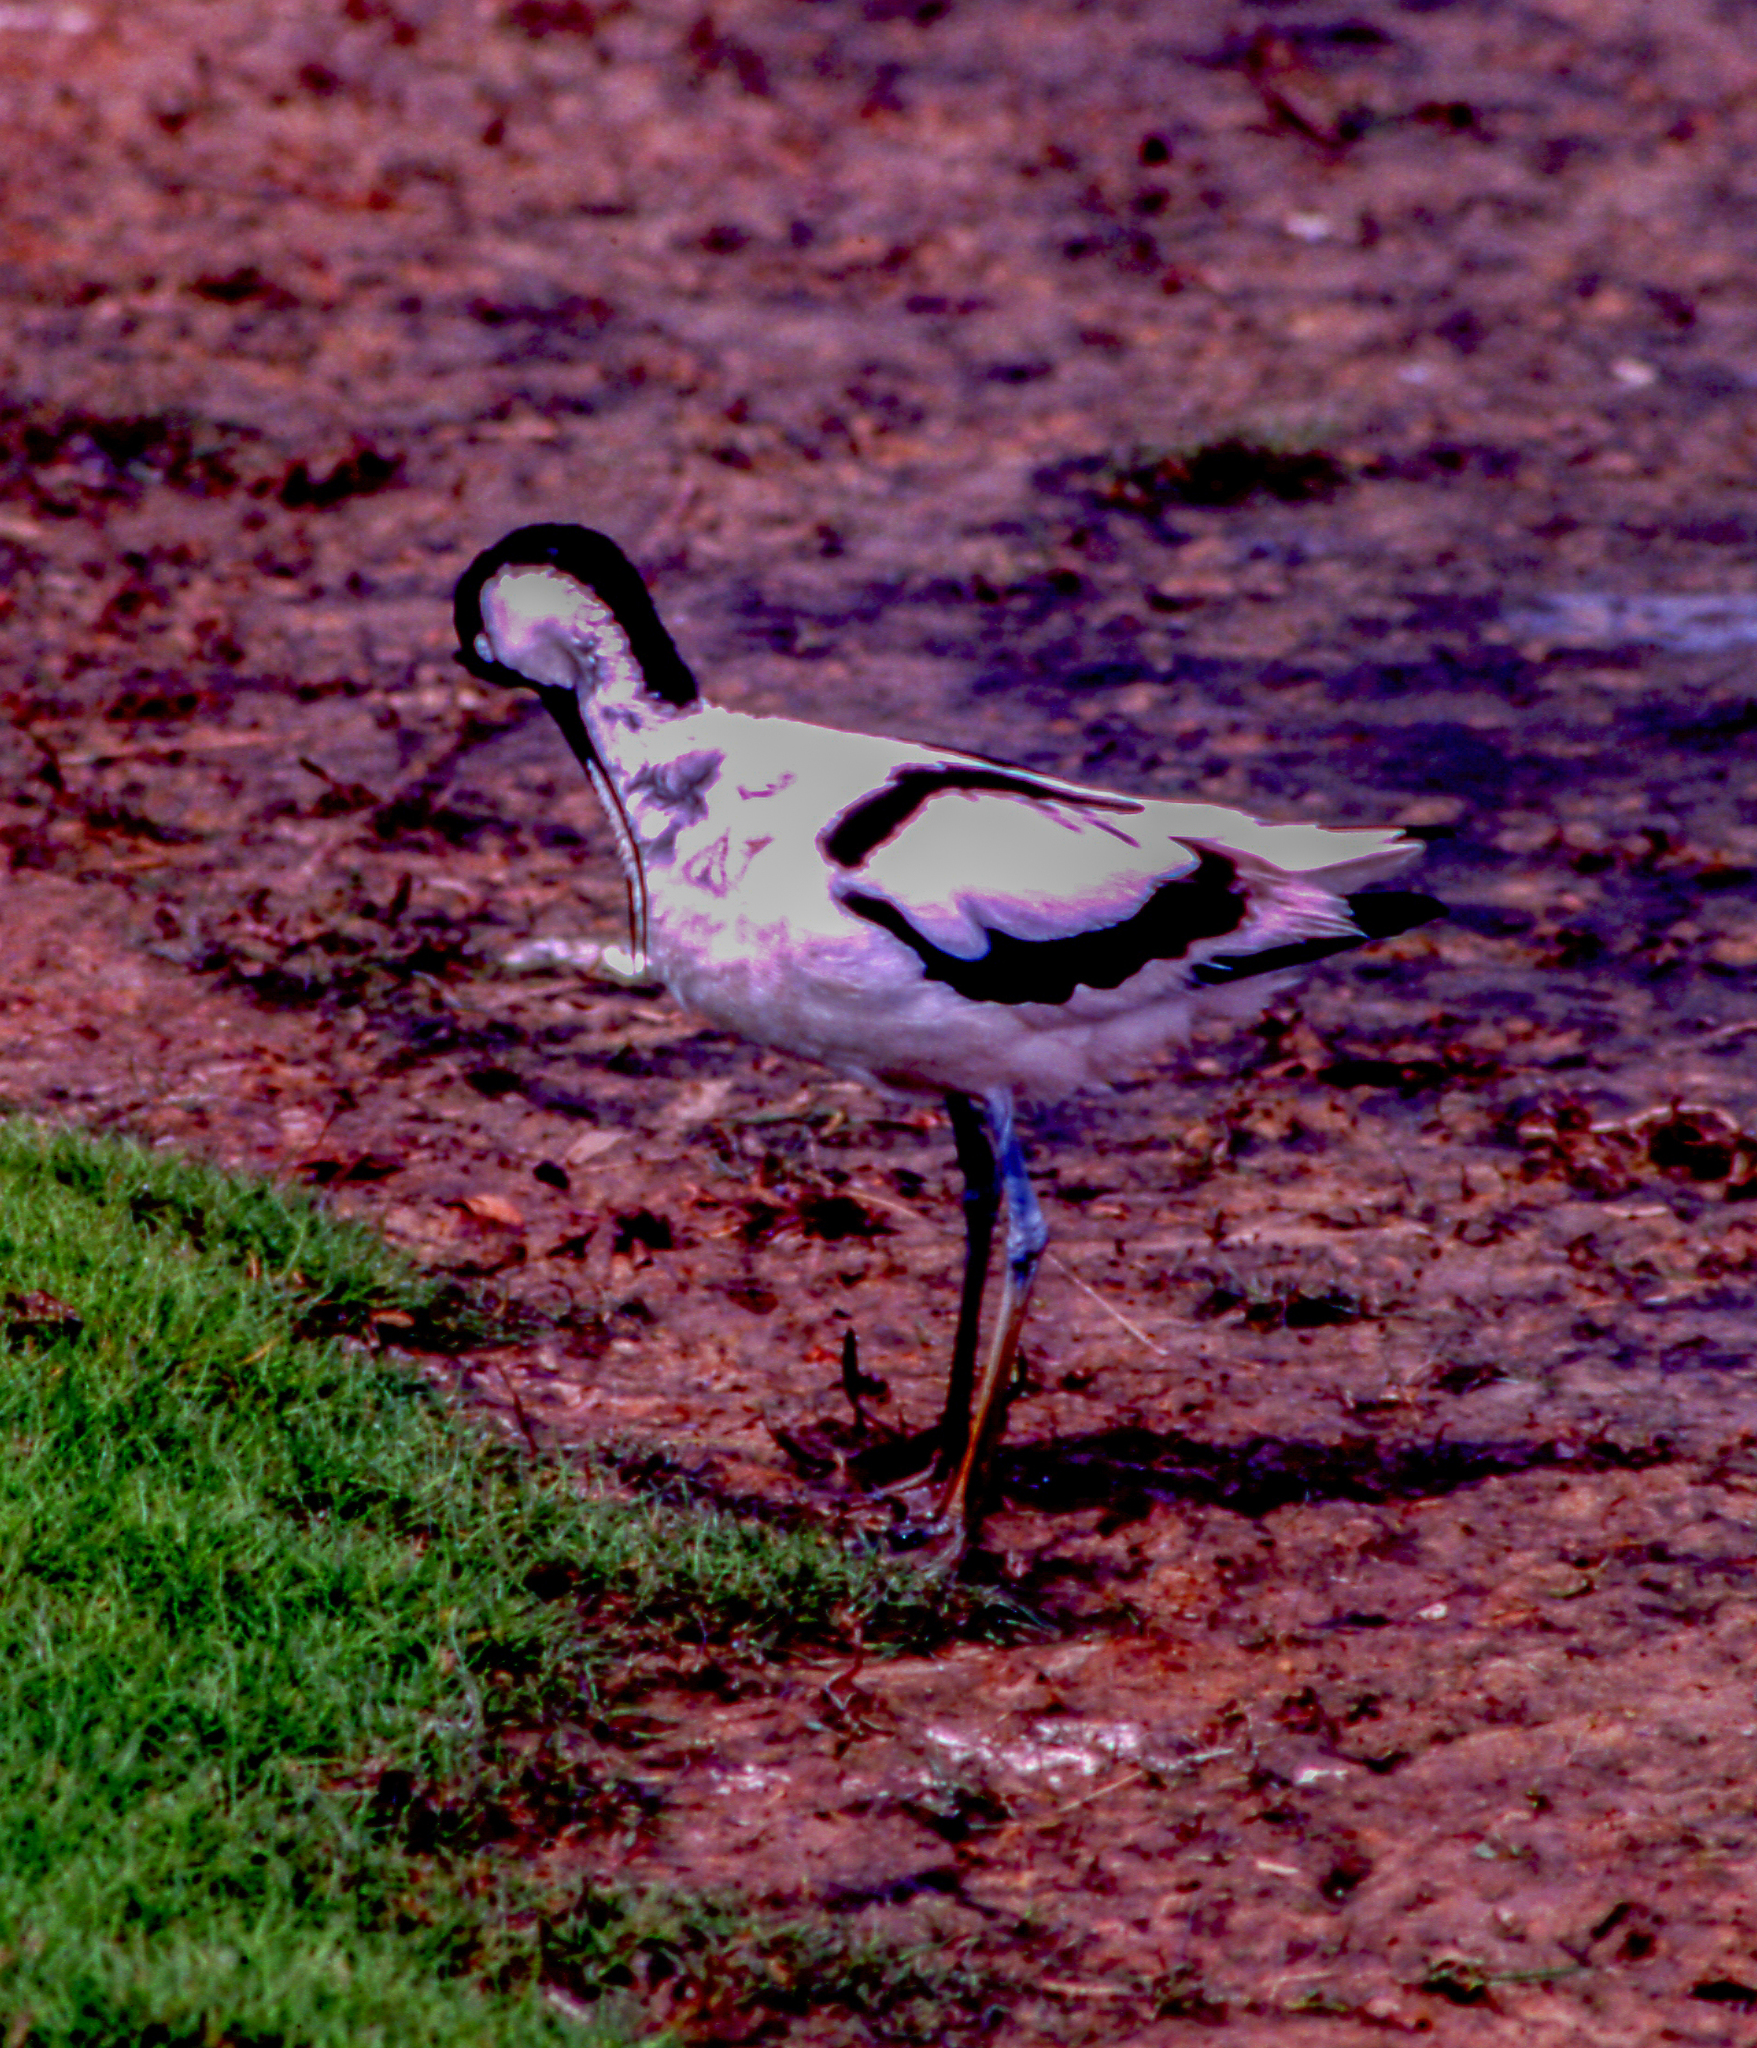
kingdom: Animalia
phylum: Chordata
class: Aves
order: Charadriiformes
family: Recurvirostridae
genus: Recurvirostra
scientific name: Recurvirostra avosetta
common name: Pied avocet
